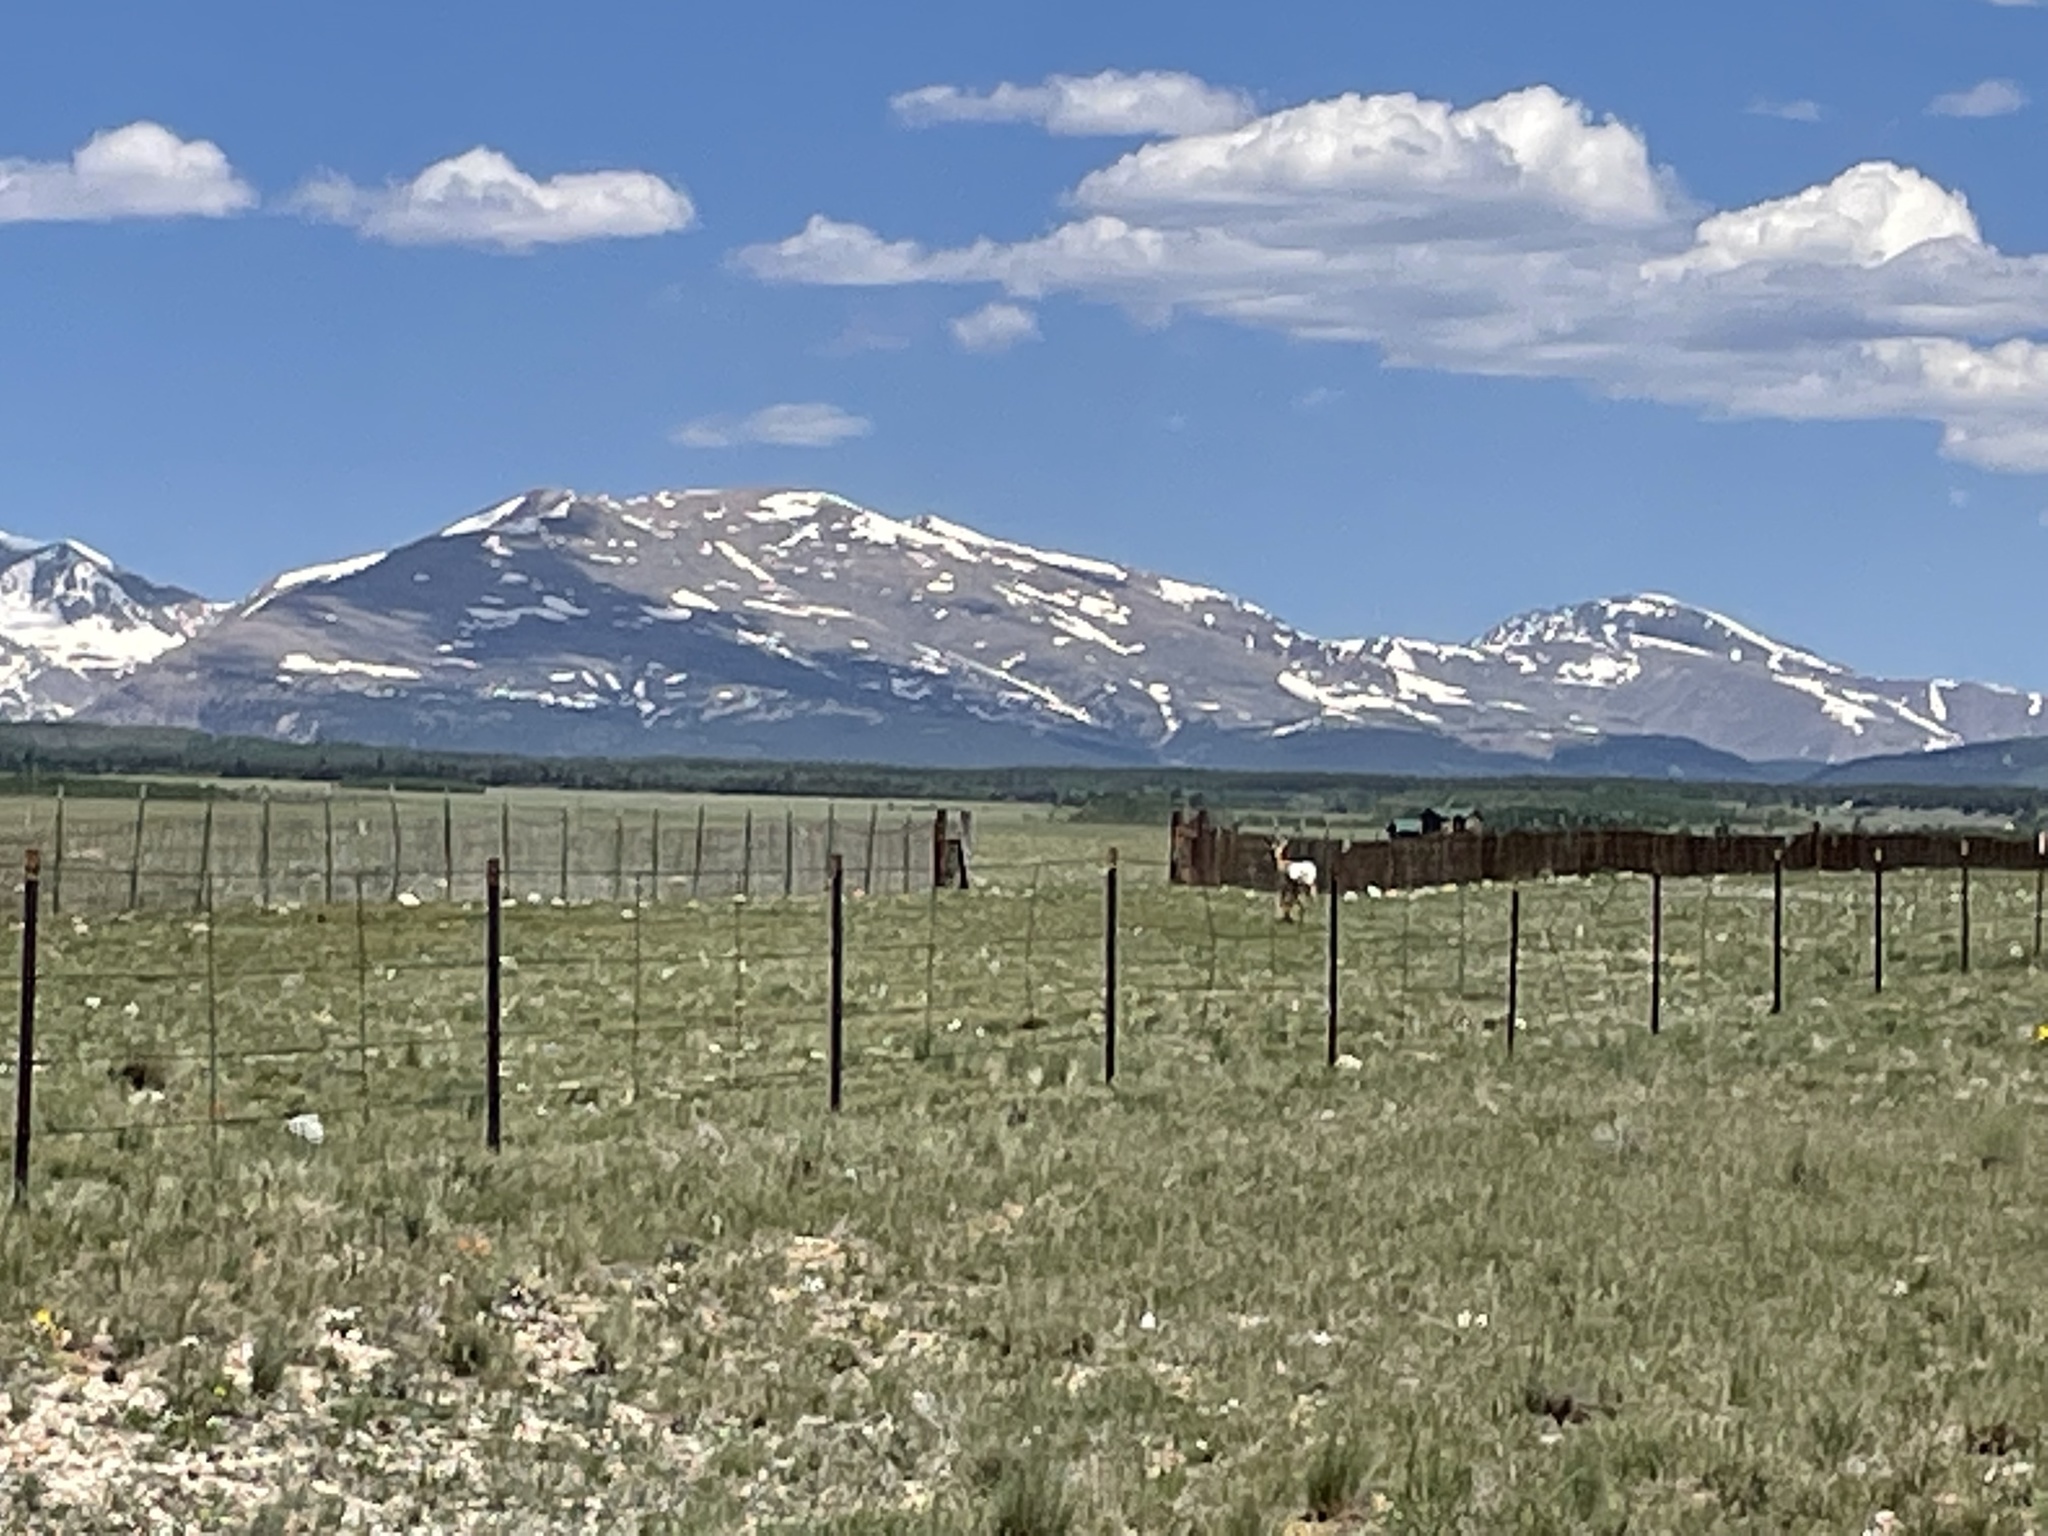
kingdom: Animalia
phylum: Chordata
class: Mammalia
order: Artiodactyla
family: Antilocapridae
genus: Antilocapra
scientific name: Antilocapra americana
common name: Pronghorn
